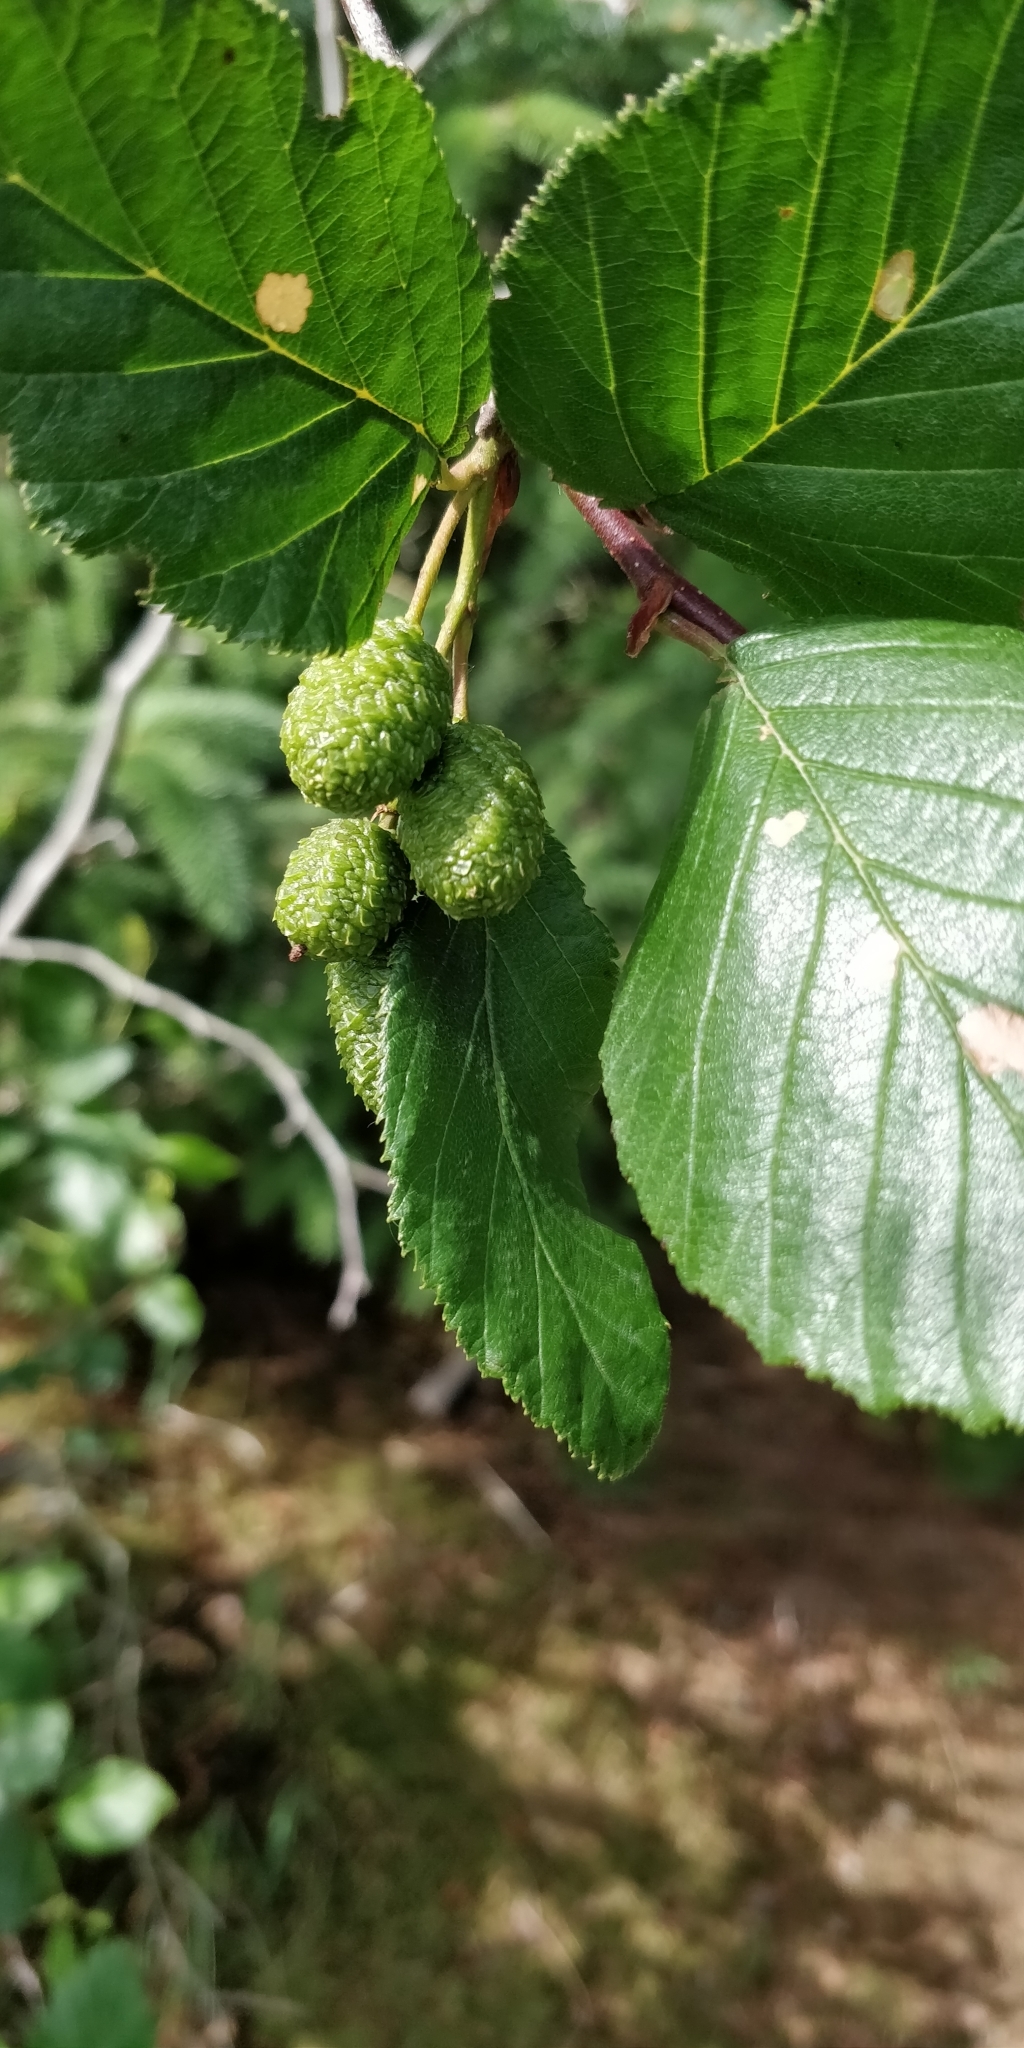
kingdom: Plantae
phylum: Tracheophyta
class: Magnoliopsida
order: Fagales
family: Betulaceae
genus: Alnus
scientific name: Alnus alnobetula
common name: Green alder
